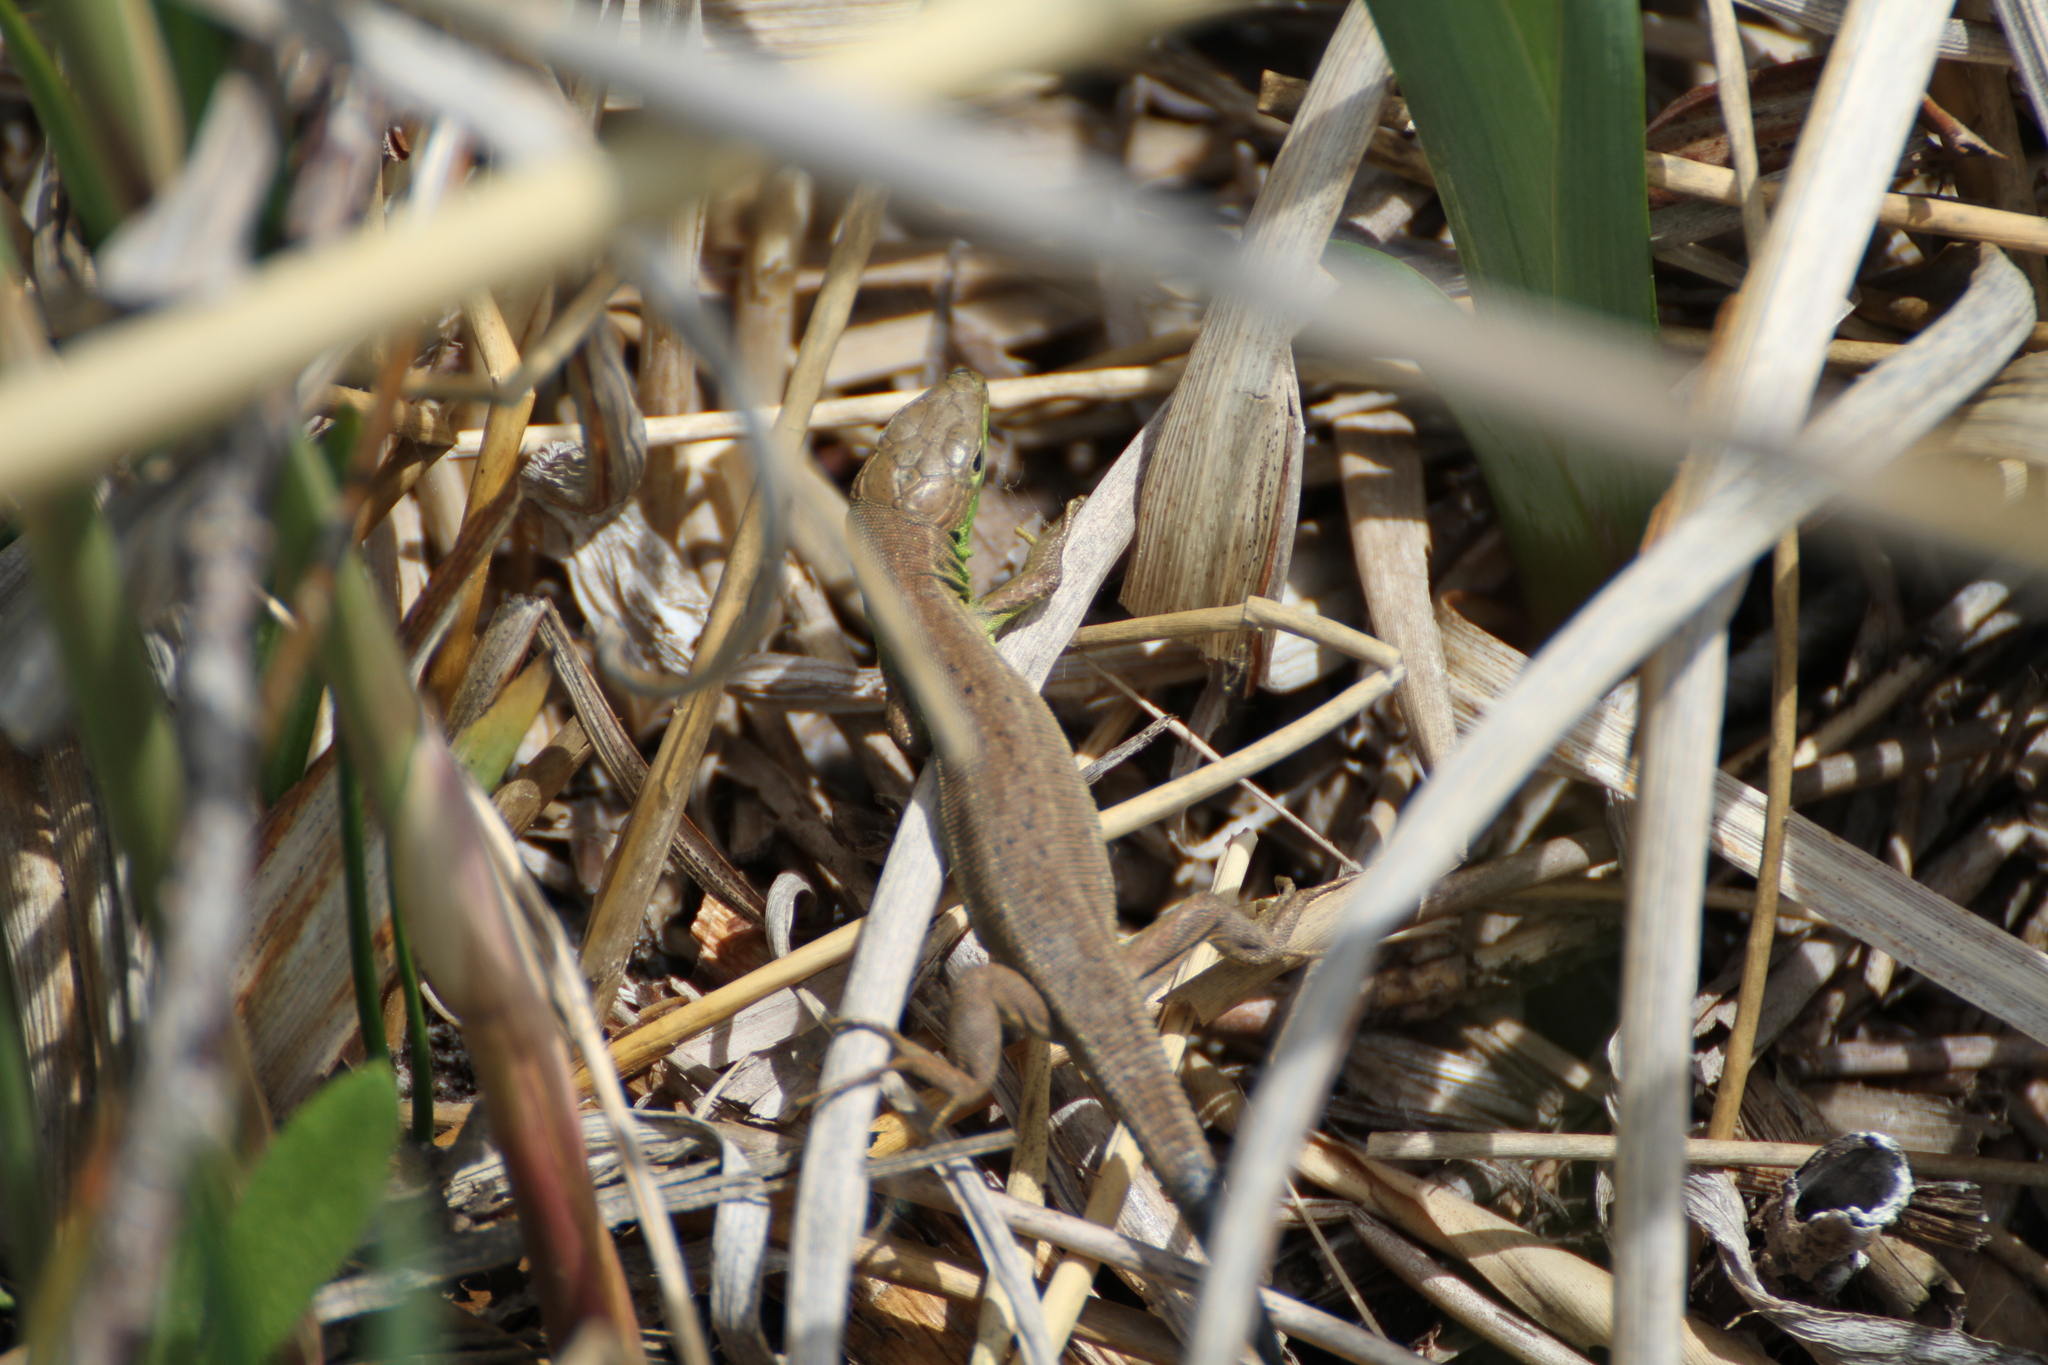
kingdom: Animalia
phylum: Chordata
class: Squamata
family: Lacertidae
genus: Lacerta
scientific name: Lacerta bilineata
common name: Western green lizard
